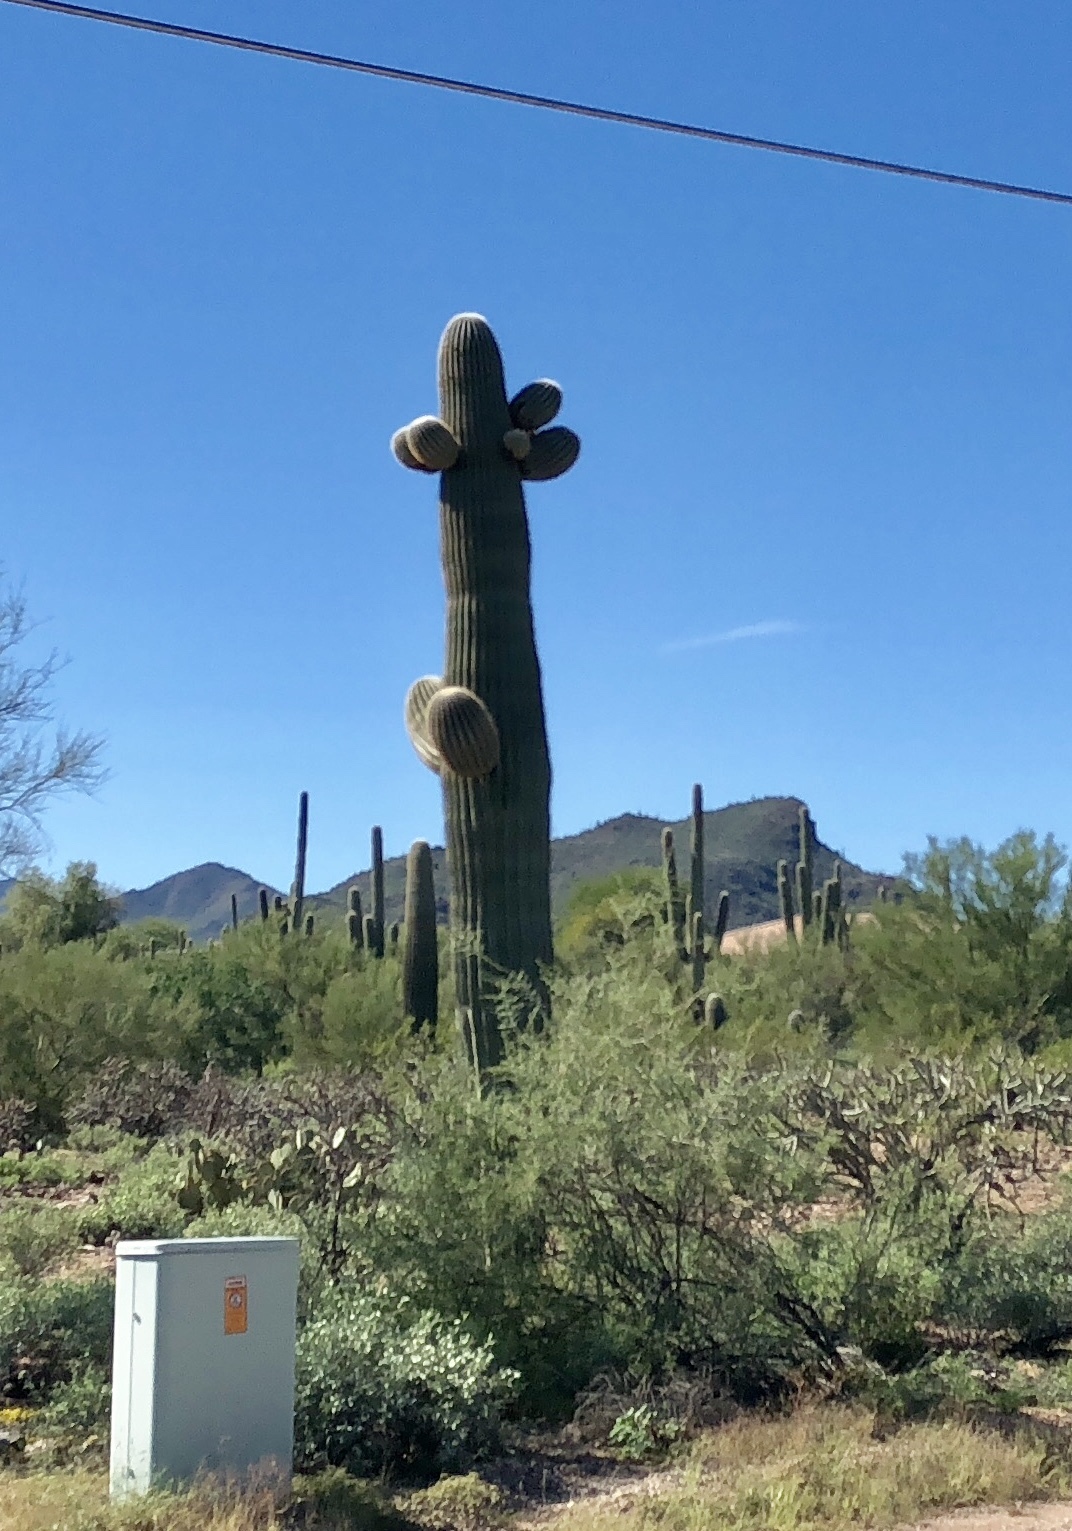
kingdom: Plantae
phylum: Tracheophyta
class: Magnoliopsida
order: Caryophyllales
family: Cactaceae
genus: Carnegiea
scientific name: Carnegiea gigantea
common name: Saguaro
